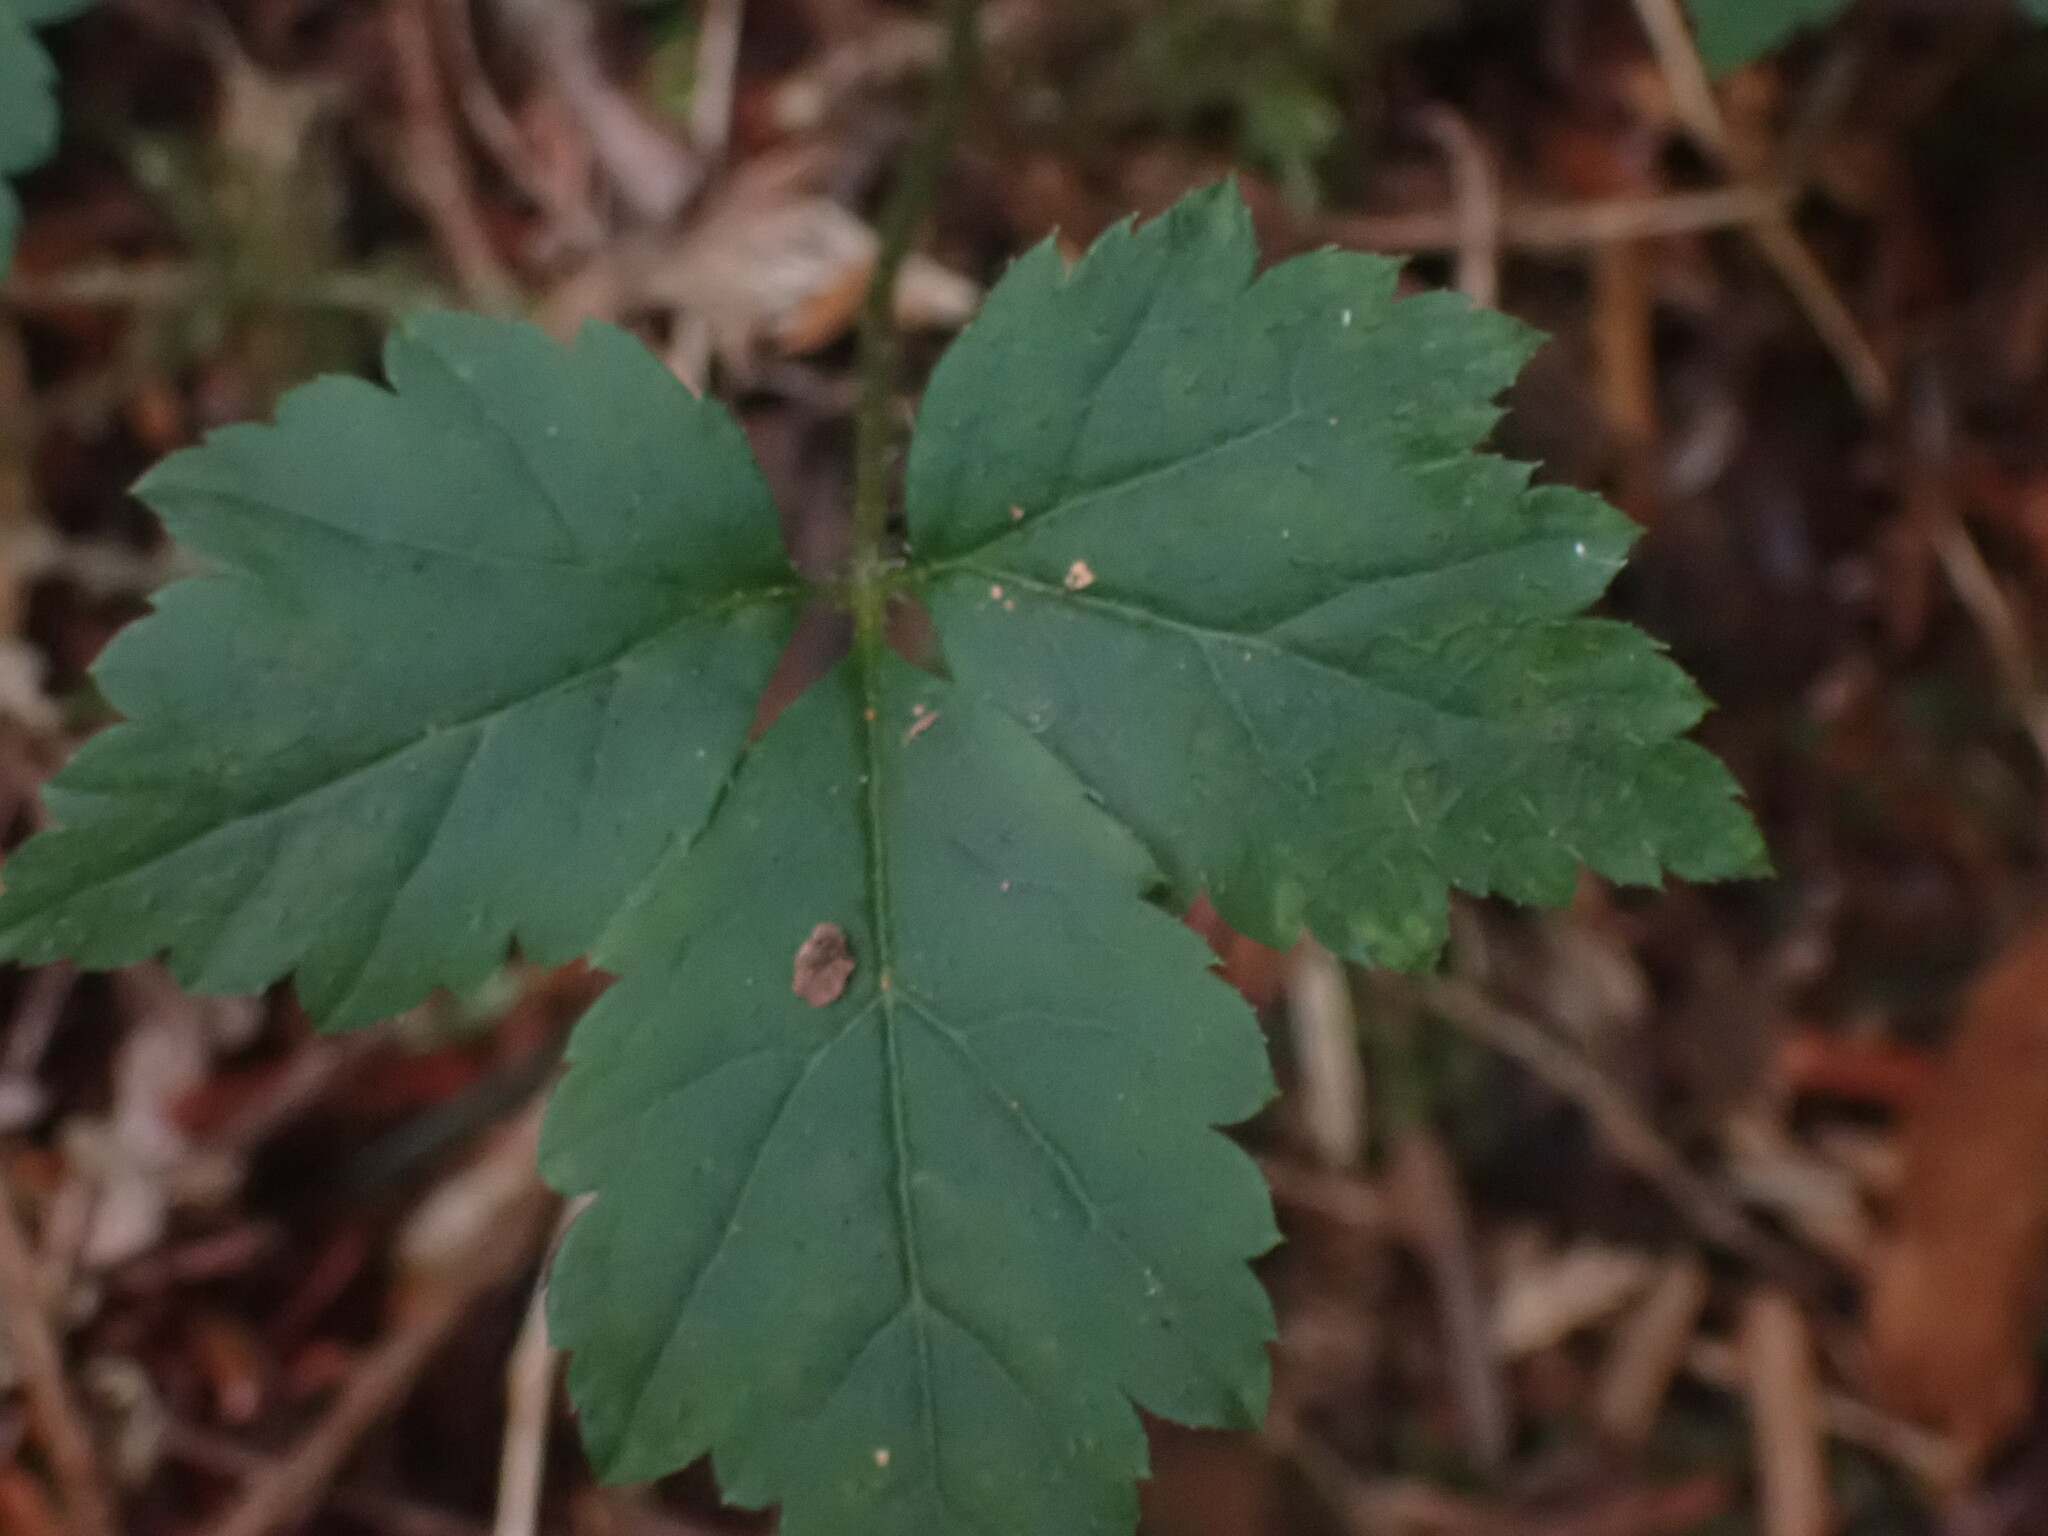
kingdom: Plantae
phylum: Tracheophyta
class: Magnoliopsida
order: Saxifragales
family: Saxifragaceae
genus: Tiarella
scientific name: Tiarella trifoliata
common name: Sugar-scoop
